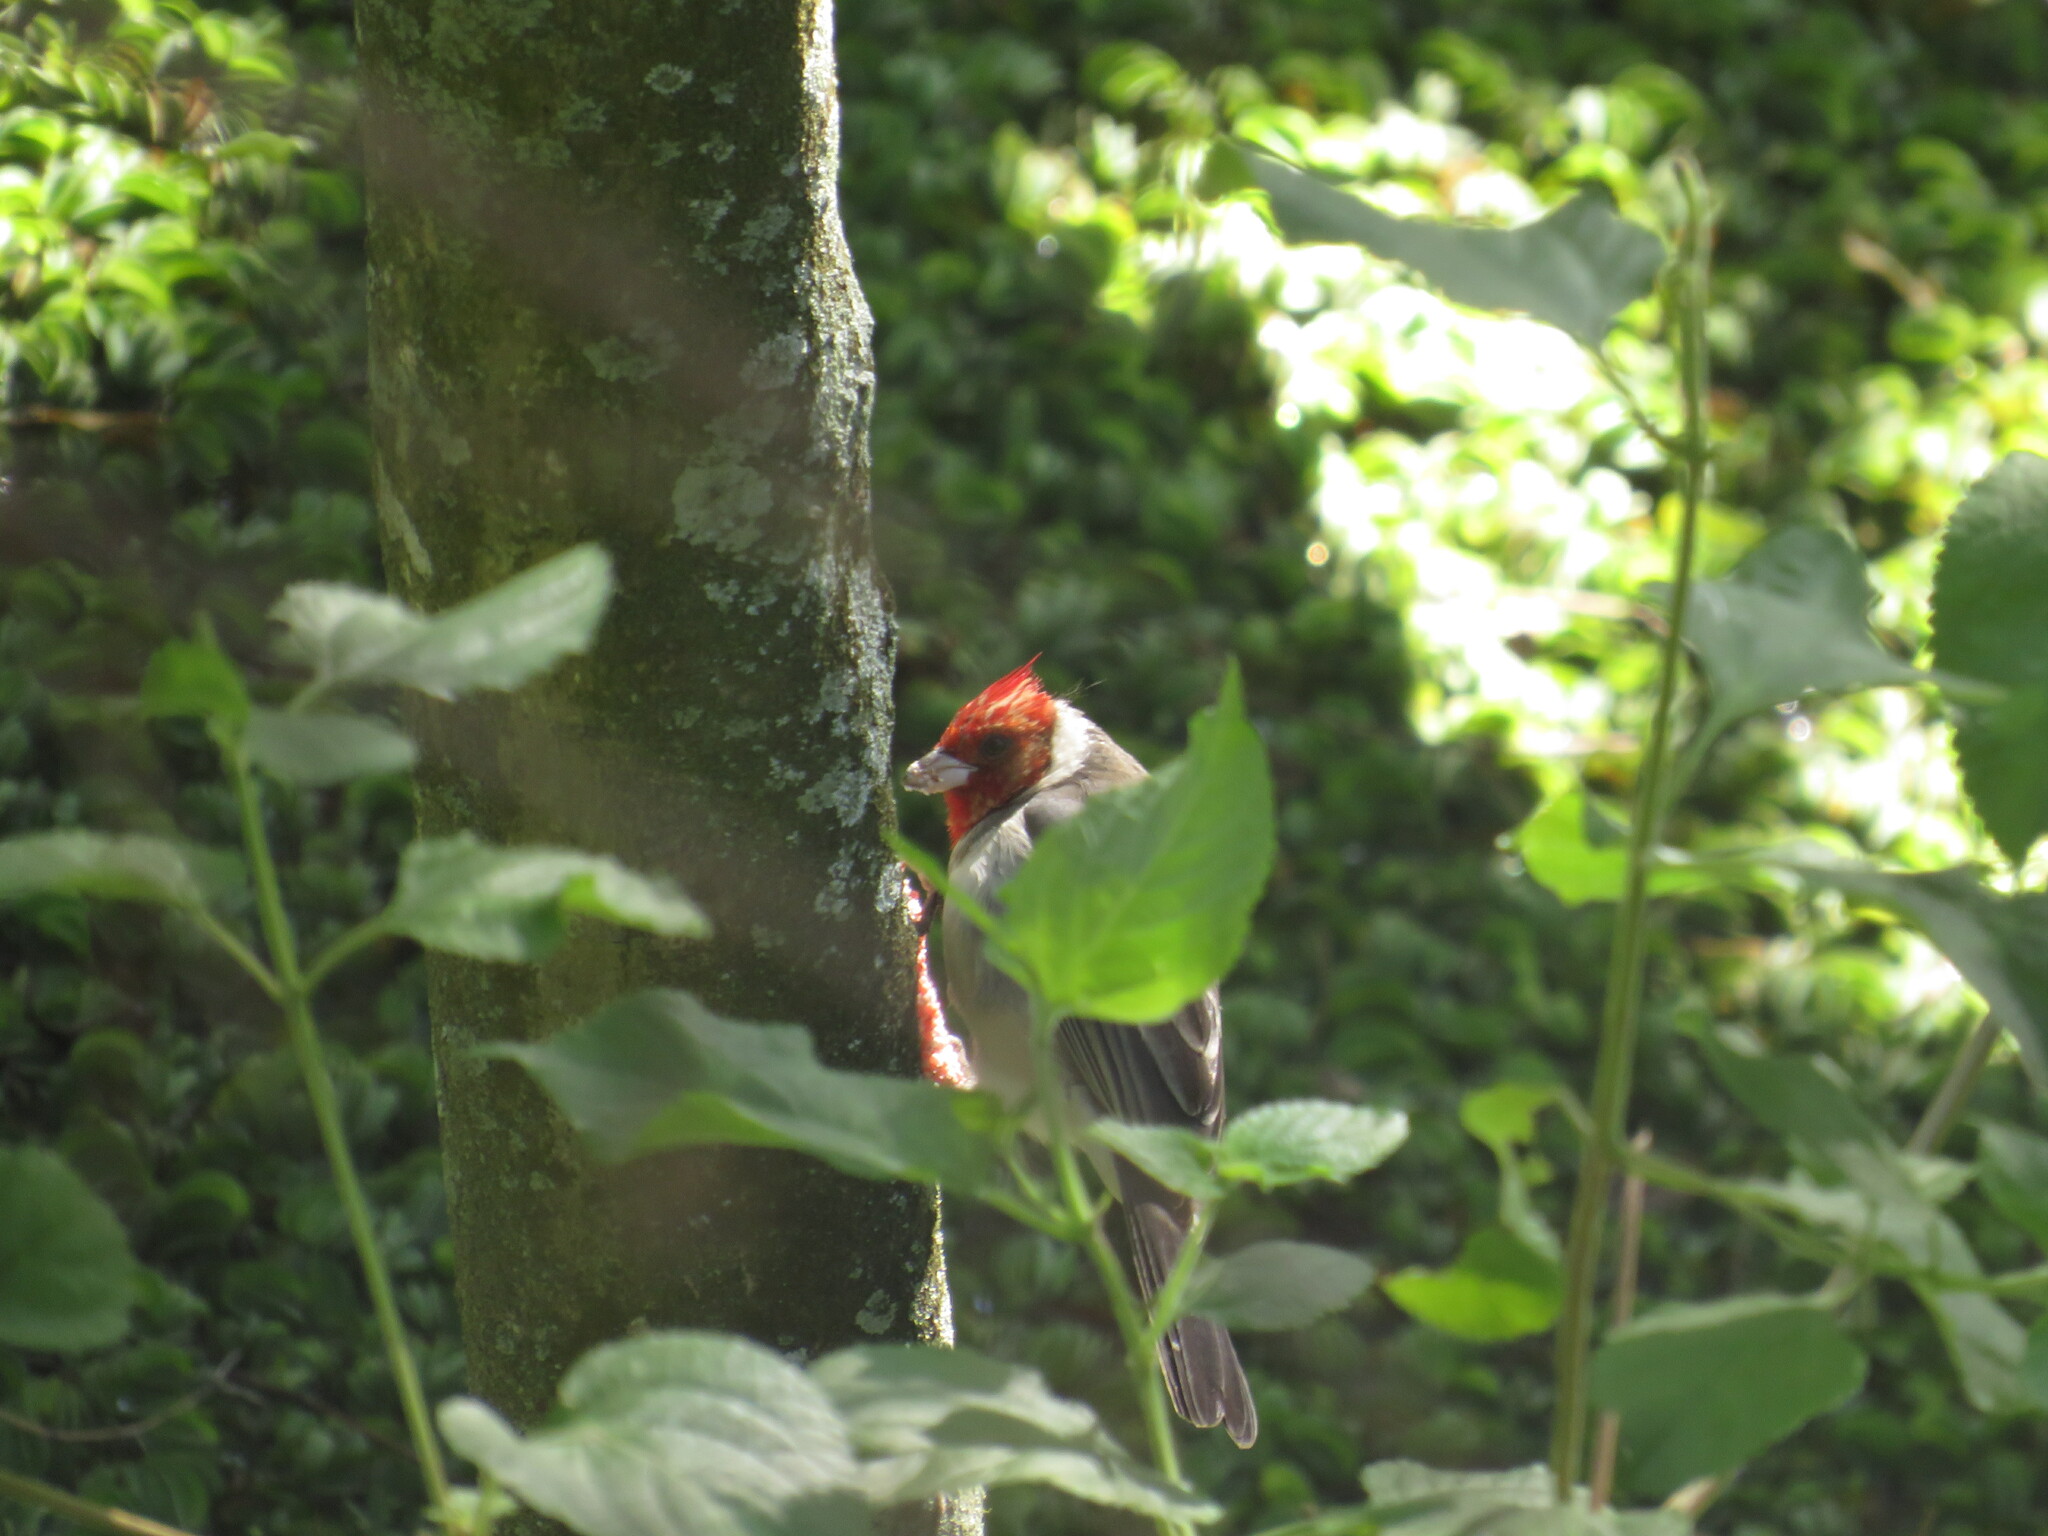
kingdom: Animalia
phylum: Chordata
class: Aves
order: Passeriformes
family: Thraupidae
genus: Paroaria
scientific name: Paroaria coronata
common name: Red-crested cardinal
